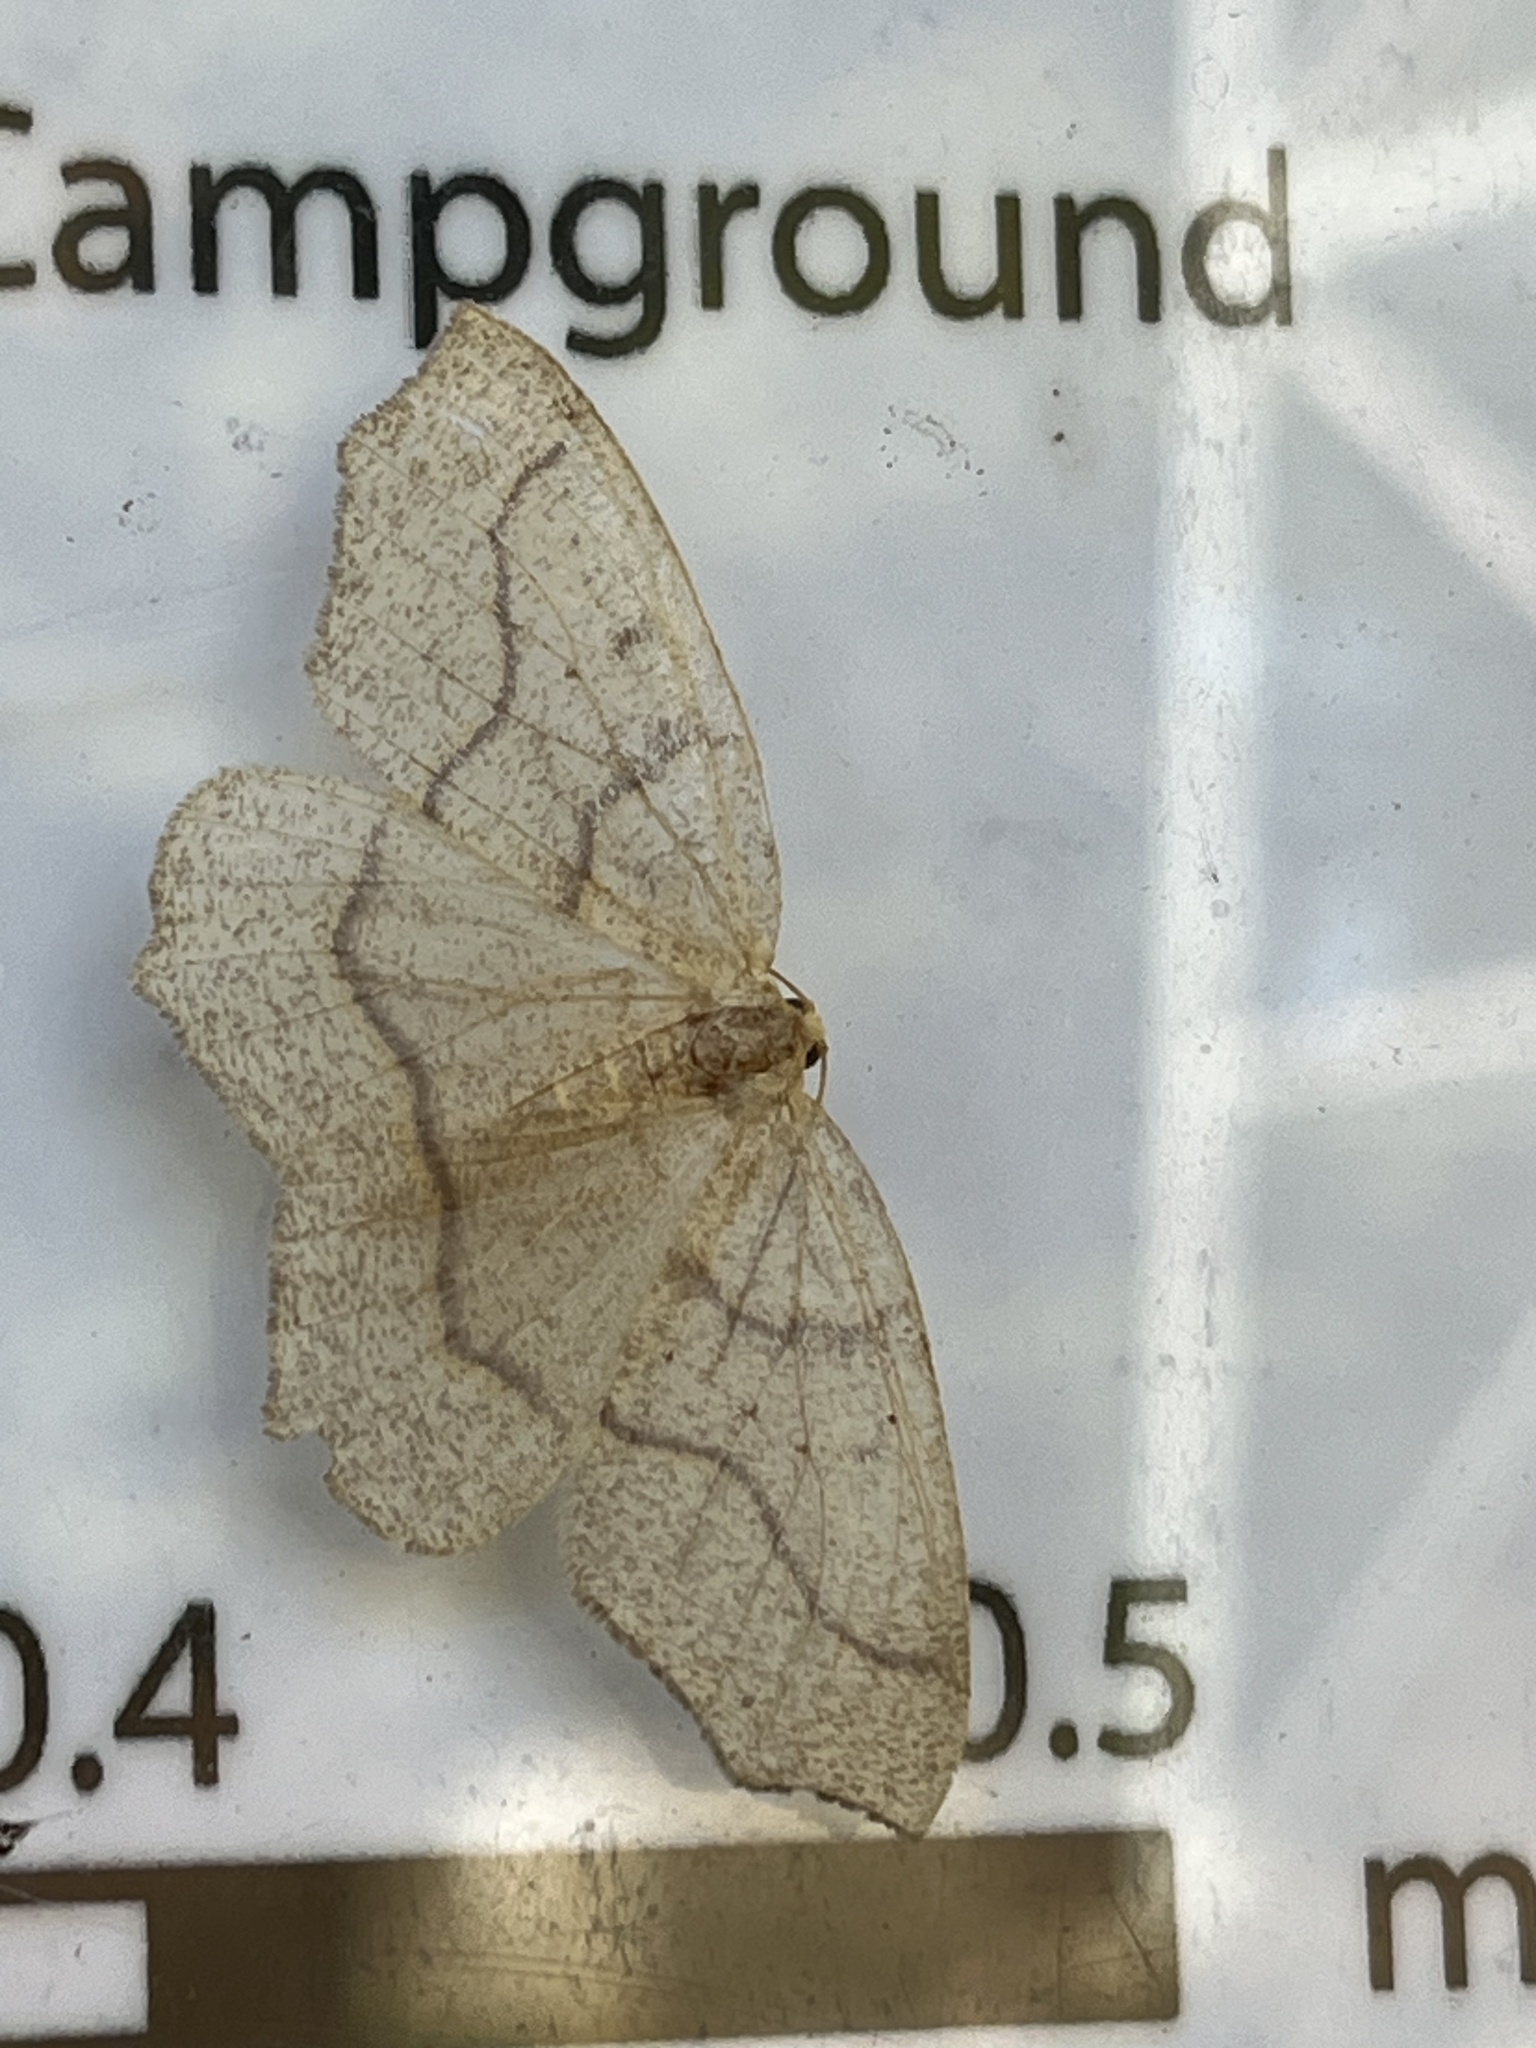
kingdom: Animalia
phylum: Arthropoda
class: Insecta
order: Lepidoptera
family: Geometridae
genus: Lambdina
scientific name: Lambdina fiscellaria
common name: Hemlock looper
